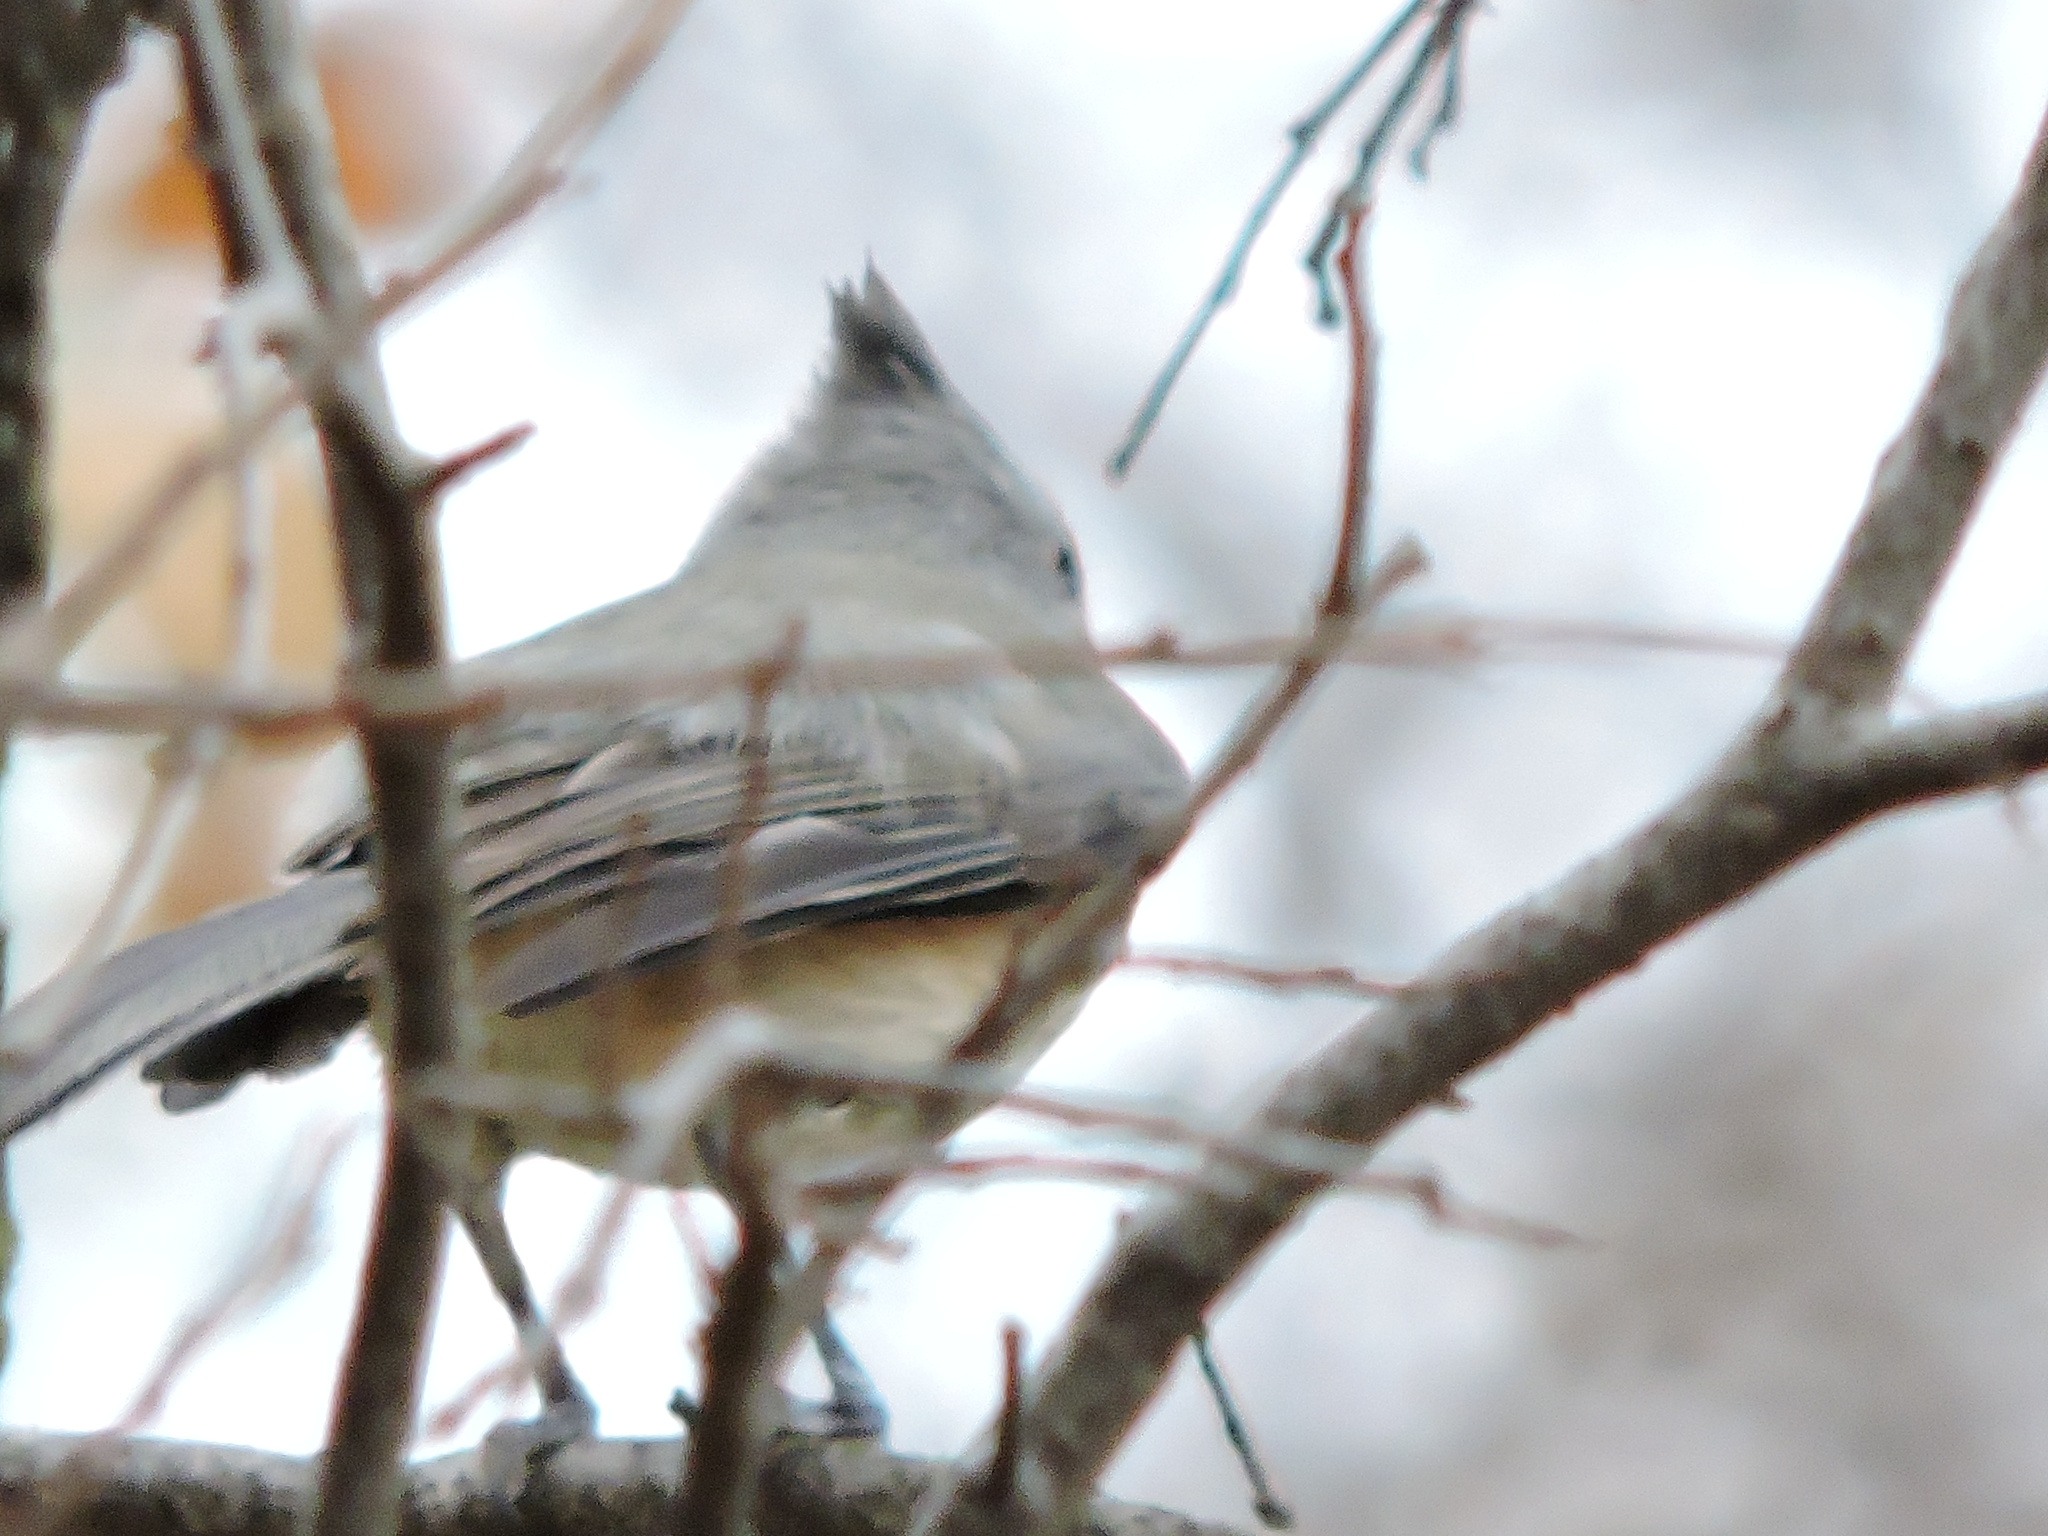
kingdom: Animalia
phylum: Chordata
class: Aves
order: Passeriformes
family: Paridae
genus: Baeolophus
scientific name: Baeolophus
